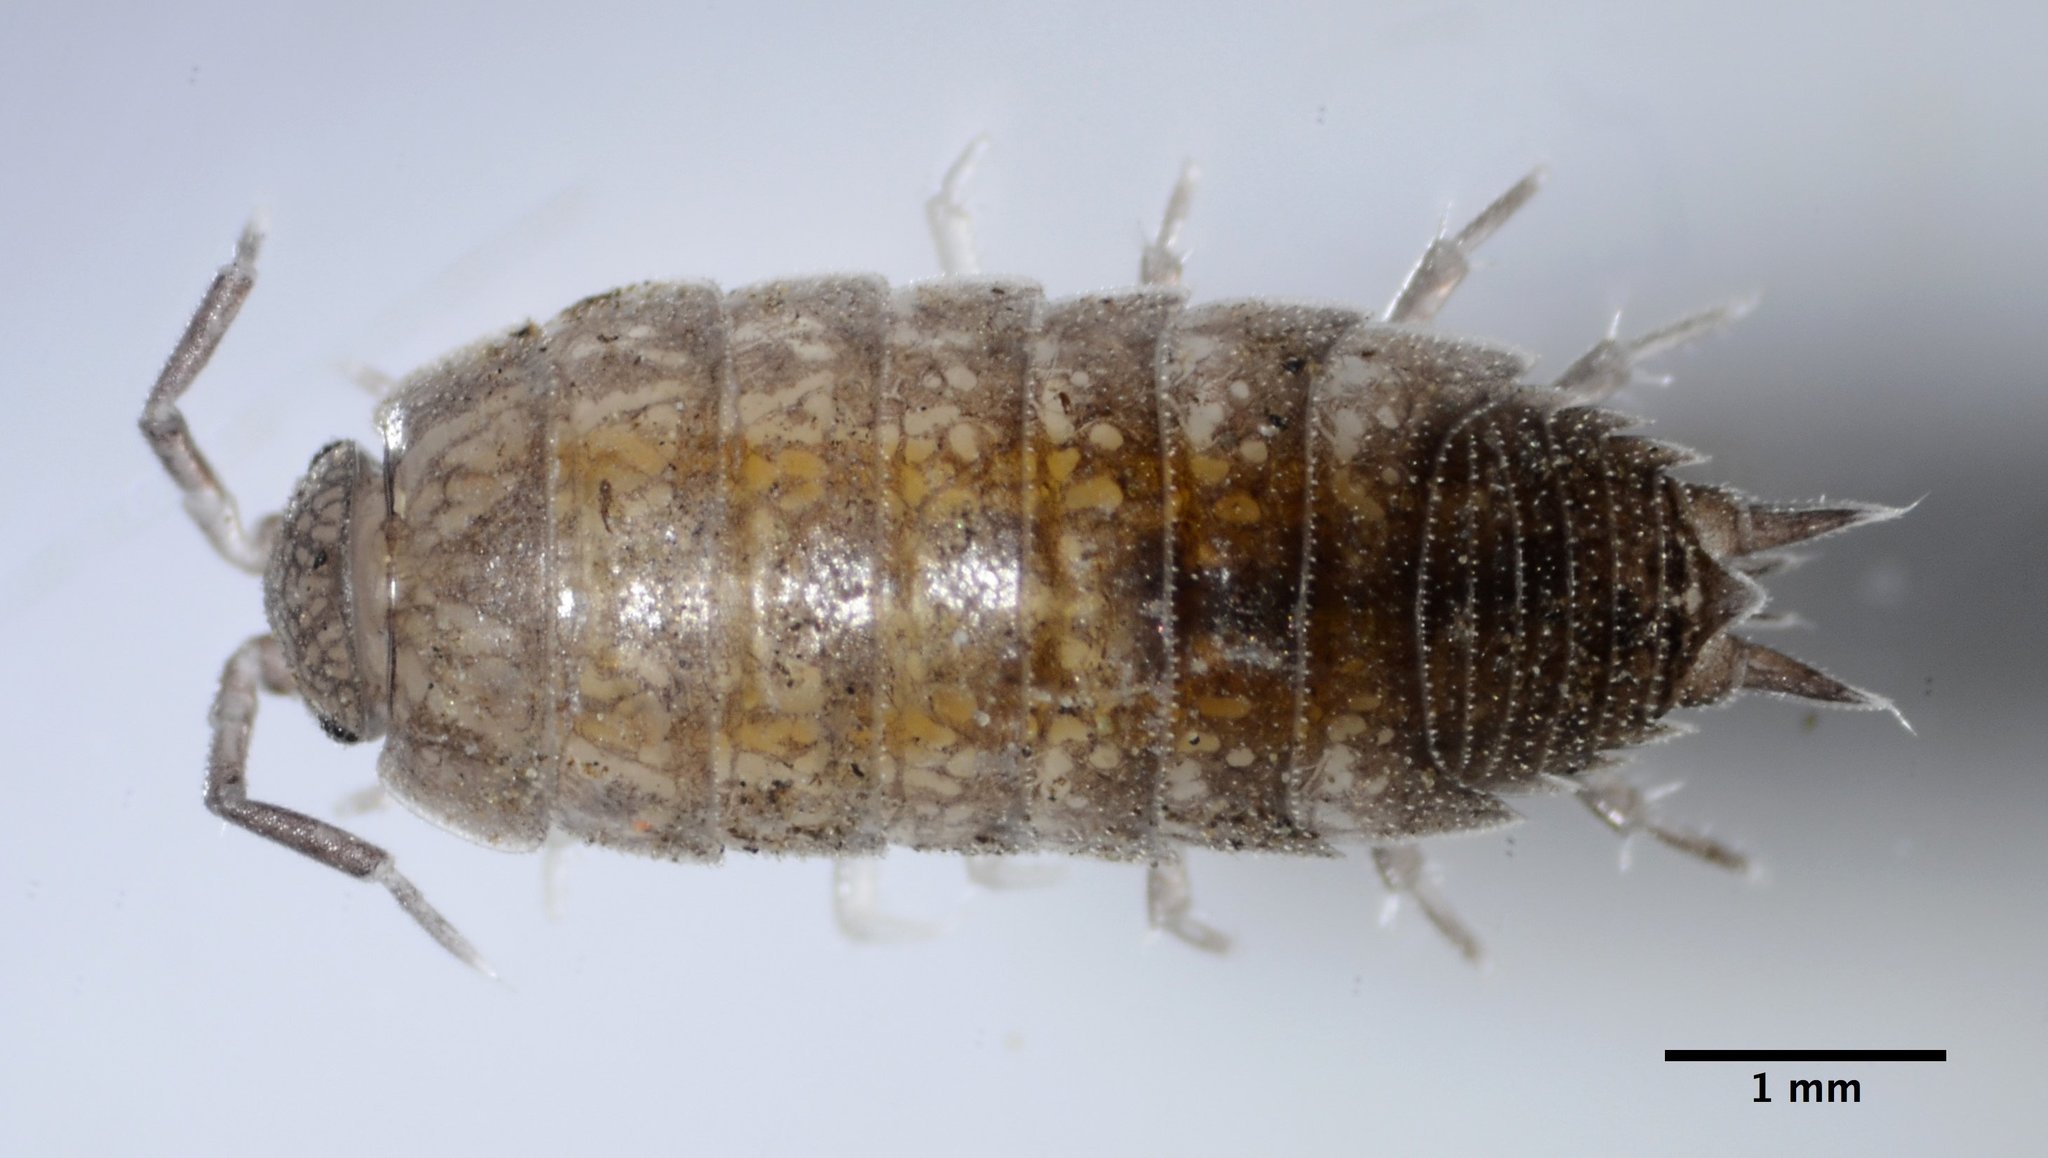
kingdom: Animalia
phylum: Arthropoda
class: Malacostraca
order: Isopoda
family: Platyarthridae
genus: Niambia
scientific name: Niambia capensis
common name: Isopod
